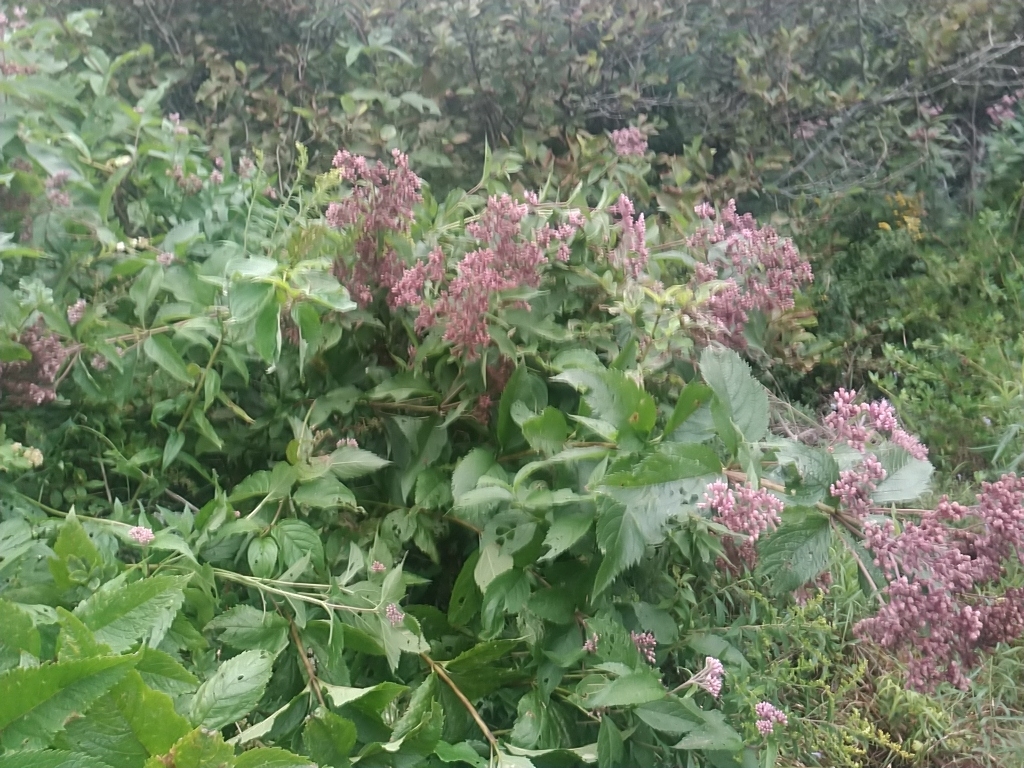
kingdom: Plantae
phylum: Tracheophyta
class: Magnoliopsida
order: Asterales
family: Asteraceae
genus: Eutrochium
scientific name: Eutrochium maculatum
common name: Spotted joe pye weed
